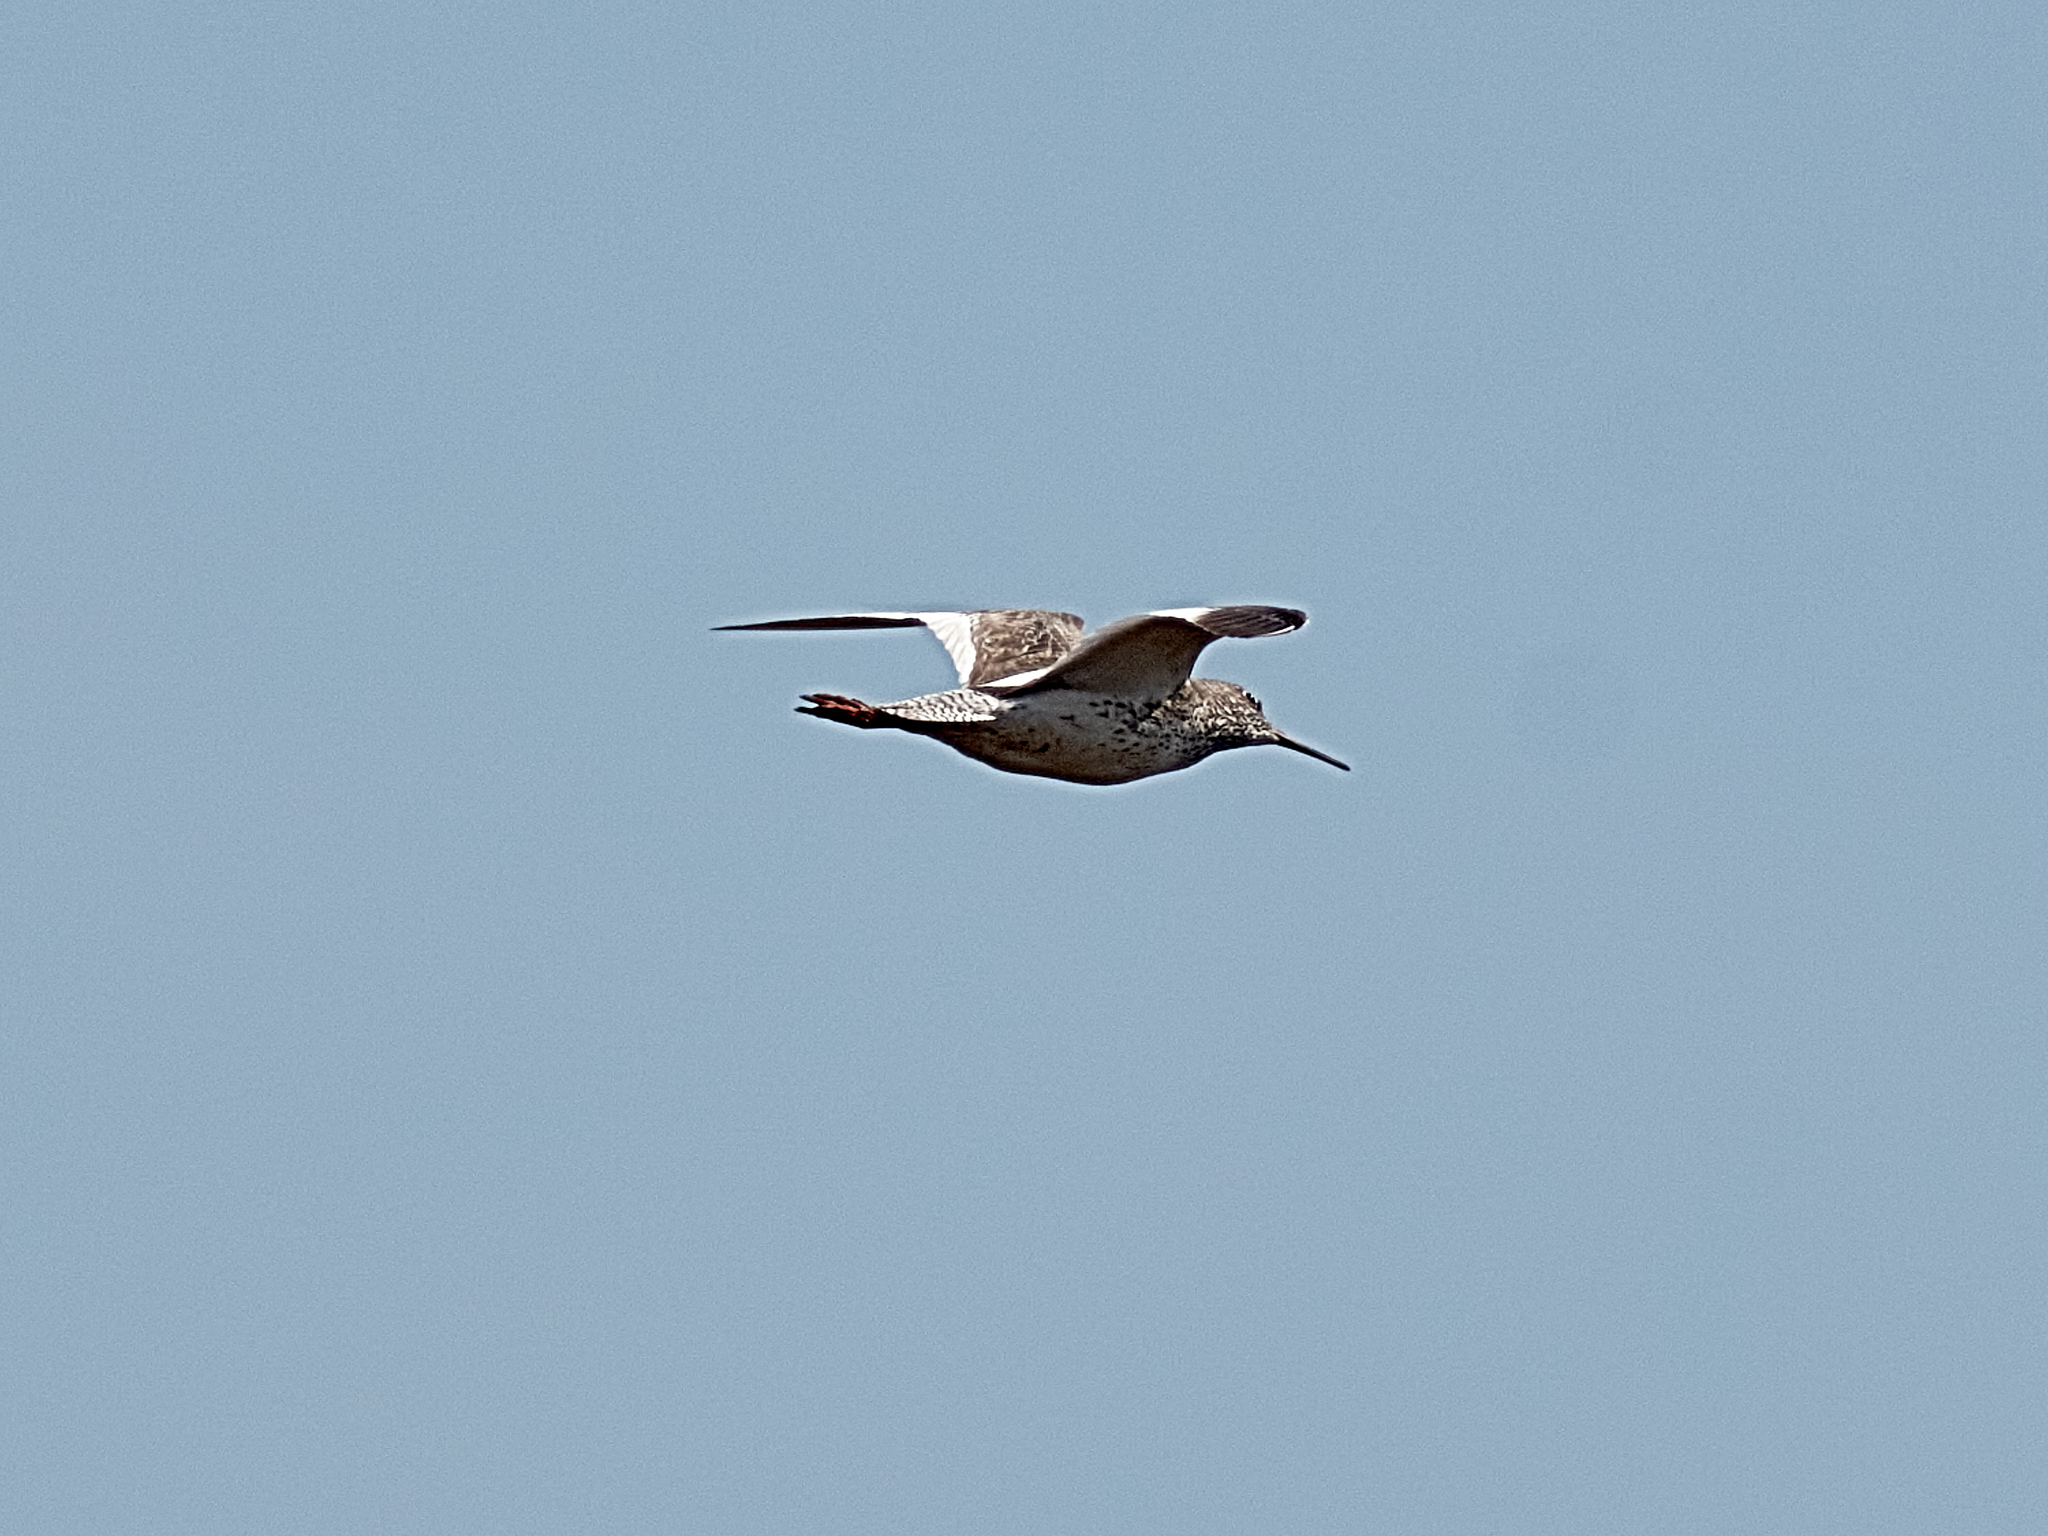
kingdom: Animalia
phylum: Chordata
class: Aves
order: Charadriiformes
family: Scolopacidae
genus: Tringa
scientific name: Tringa totanus
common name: Common redshank
